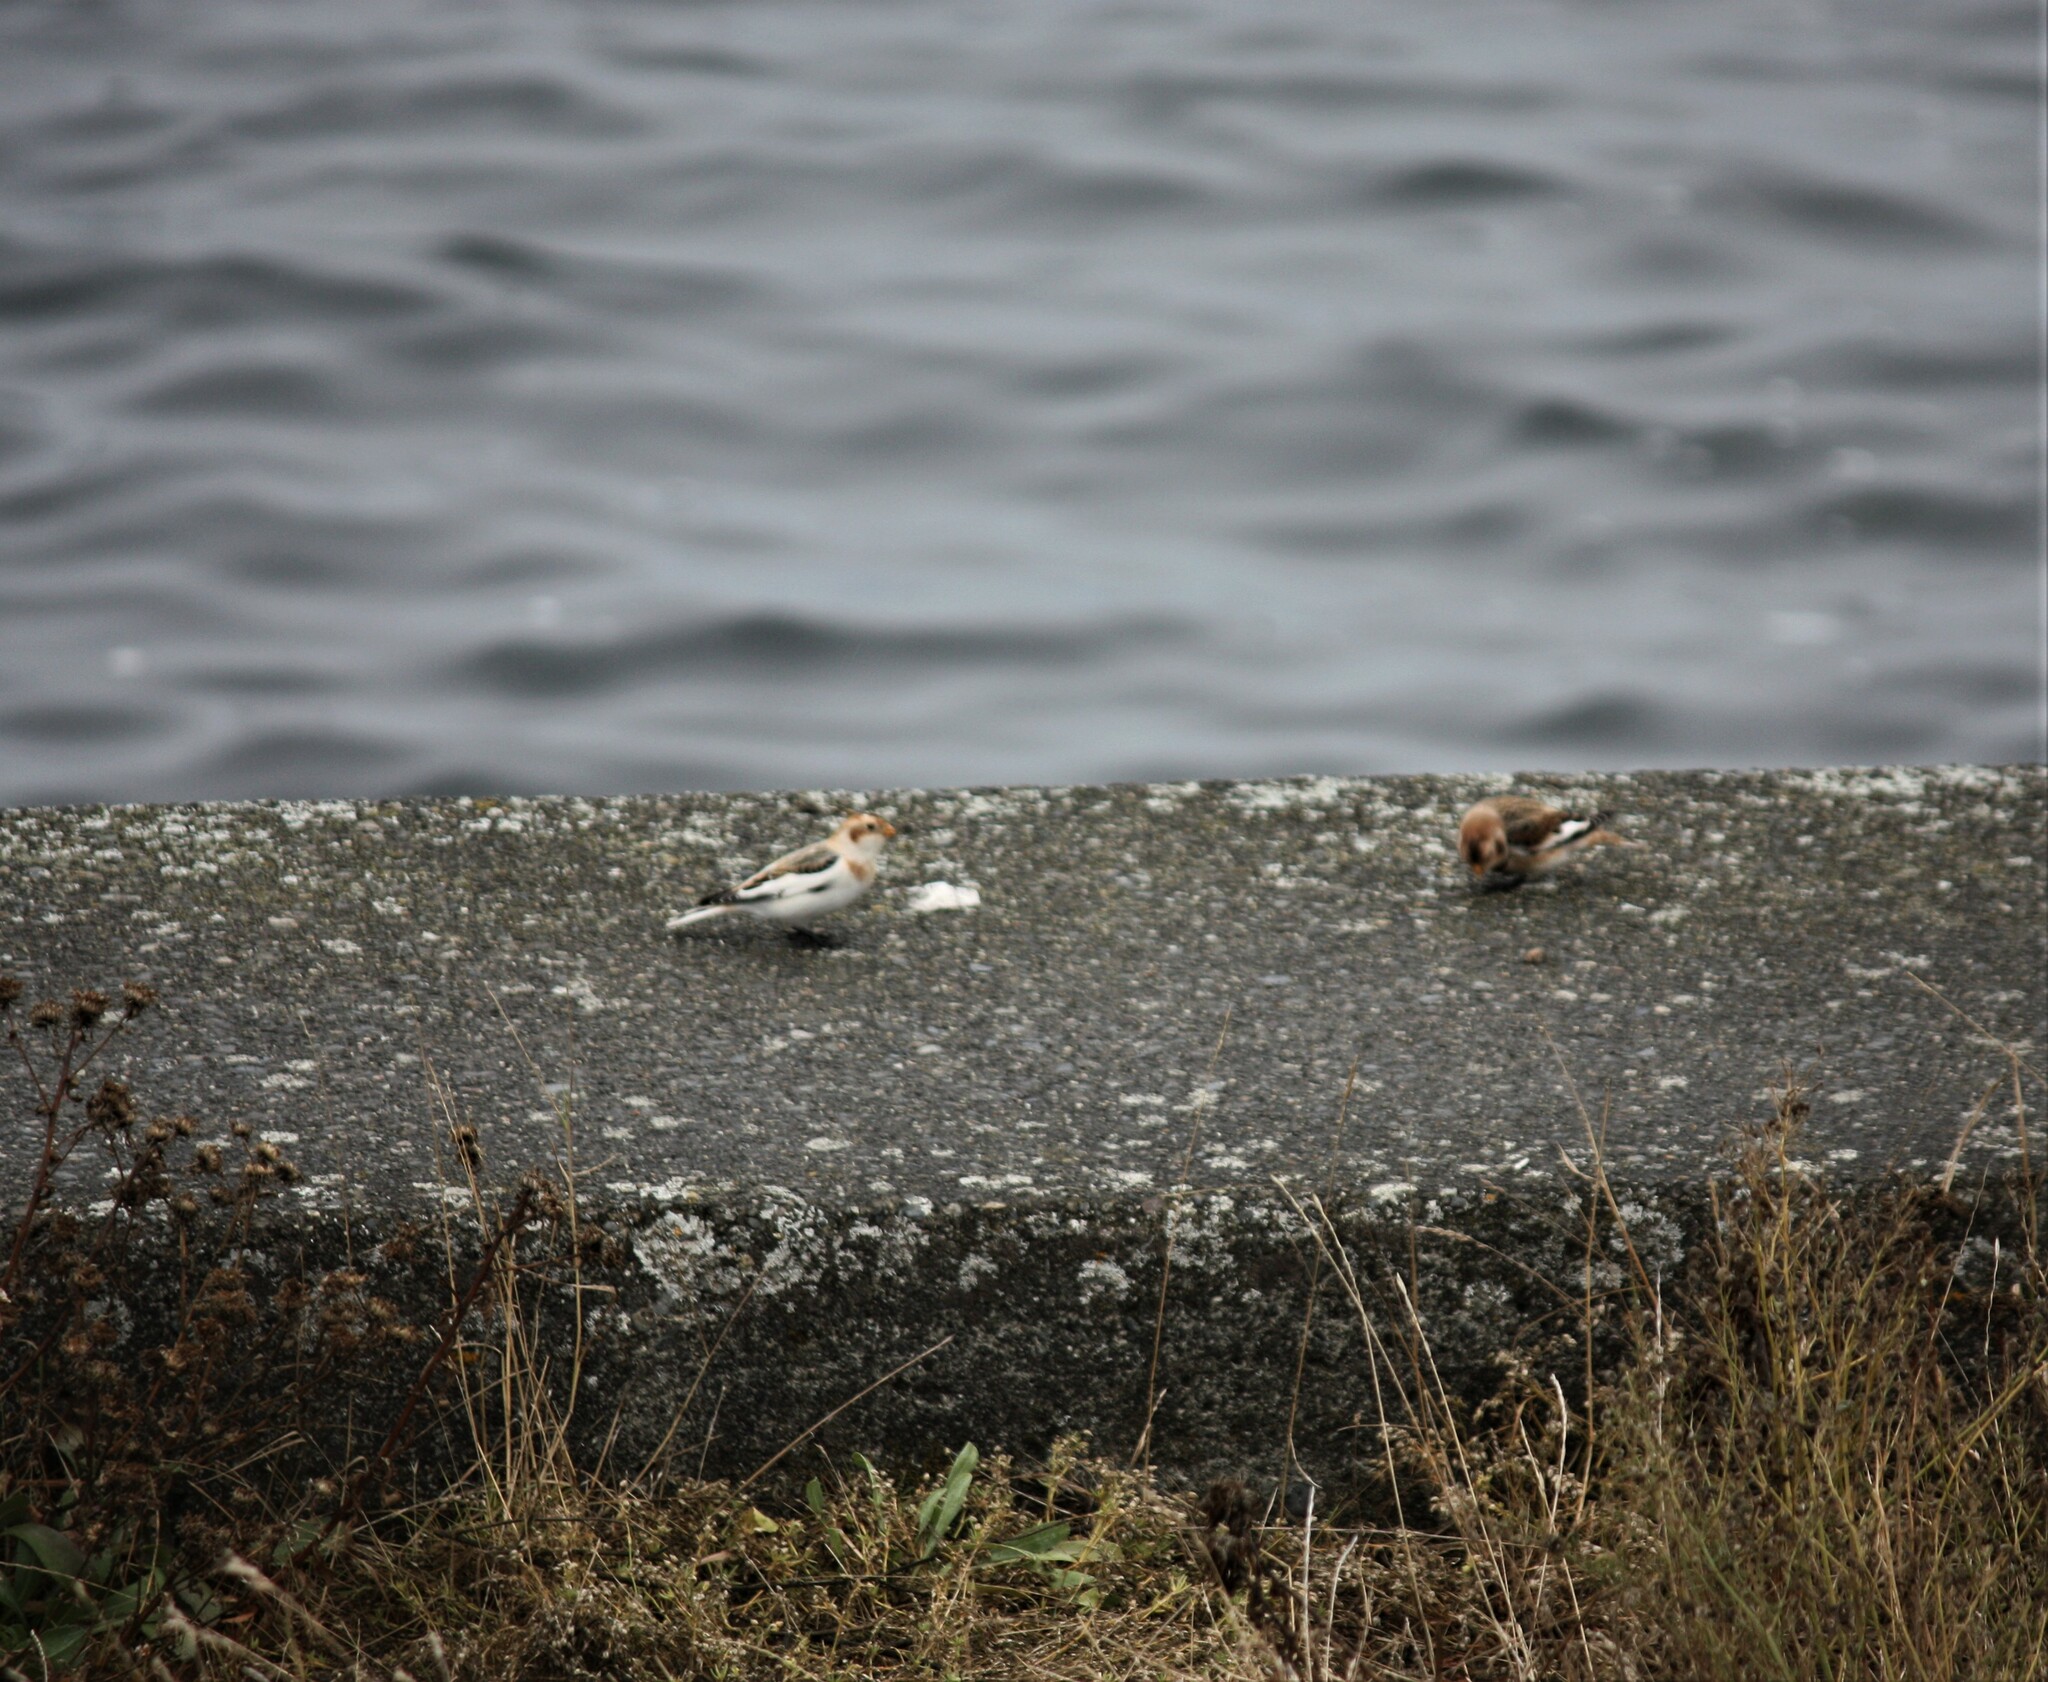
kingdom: Animalia
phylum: Chordata
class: Aves
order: Passeriformes
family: Calcariidae
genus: Plectrophenax
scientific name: Plectrophenax nivalis
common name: Snow bunting
